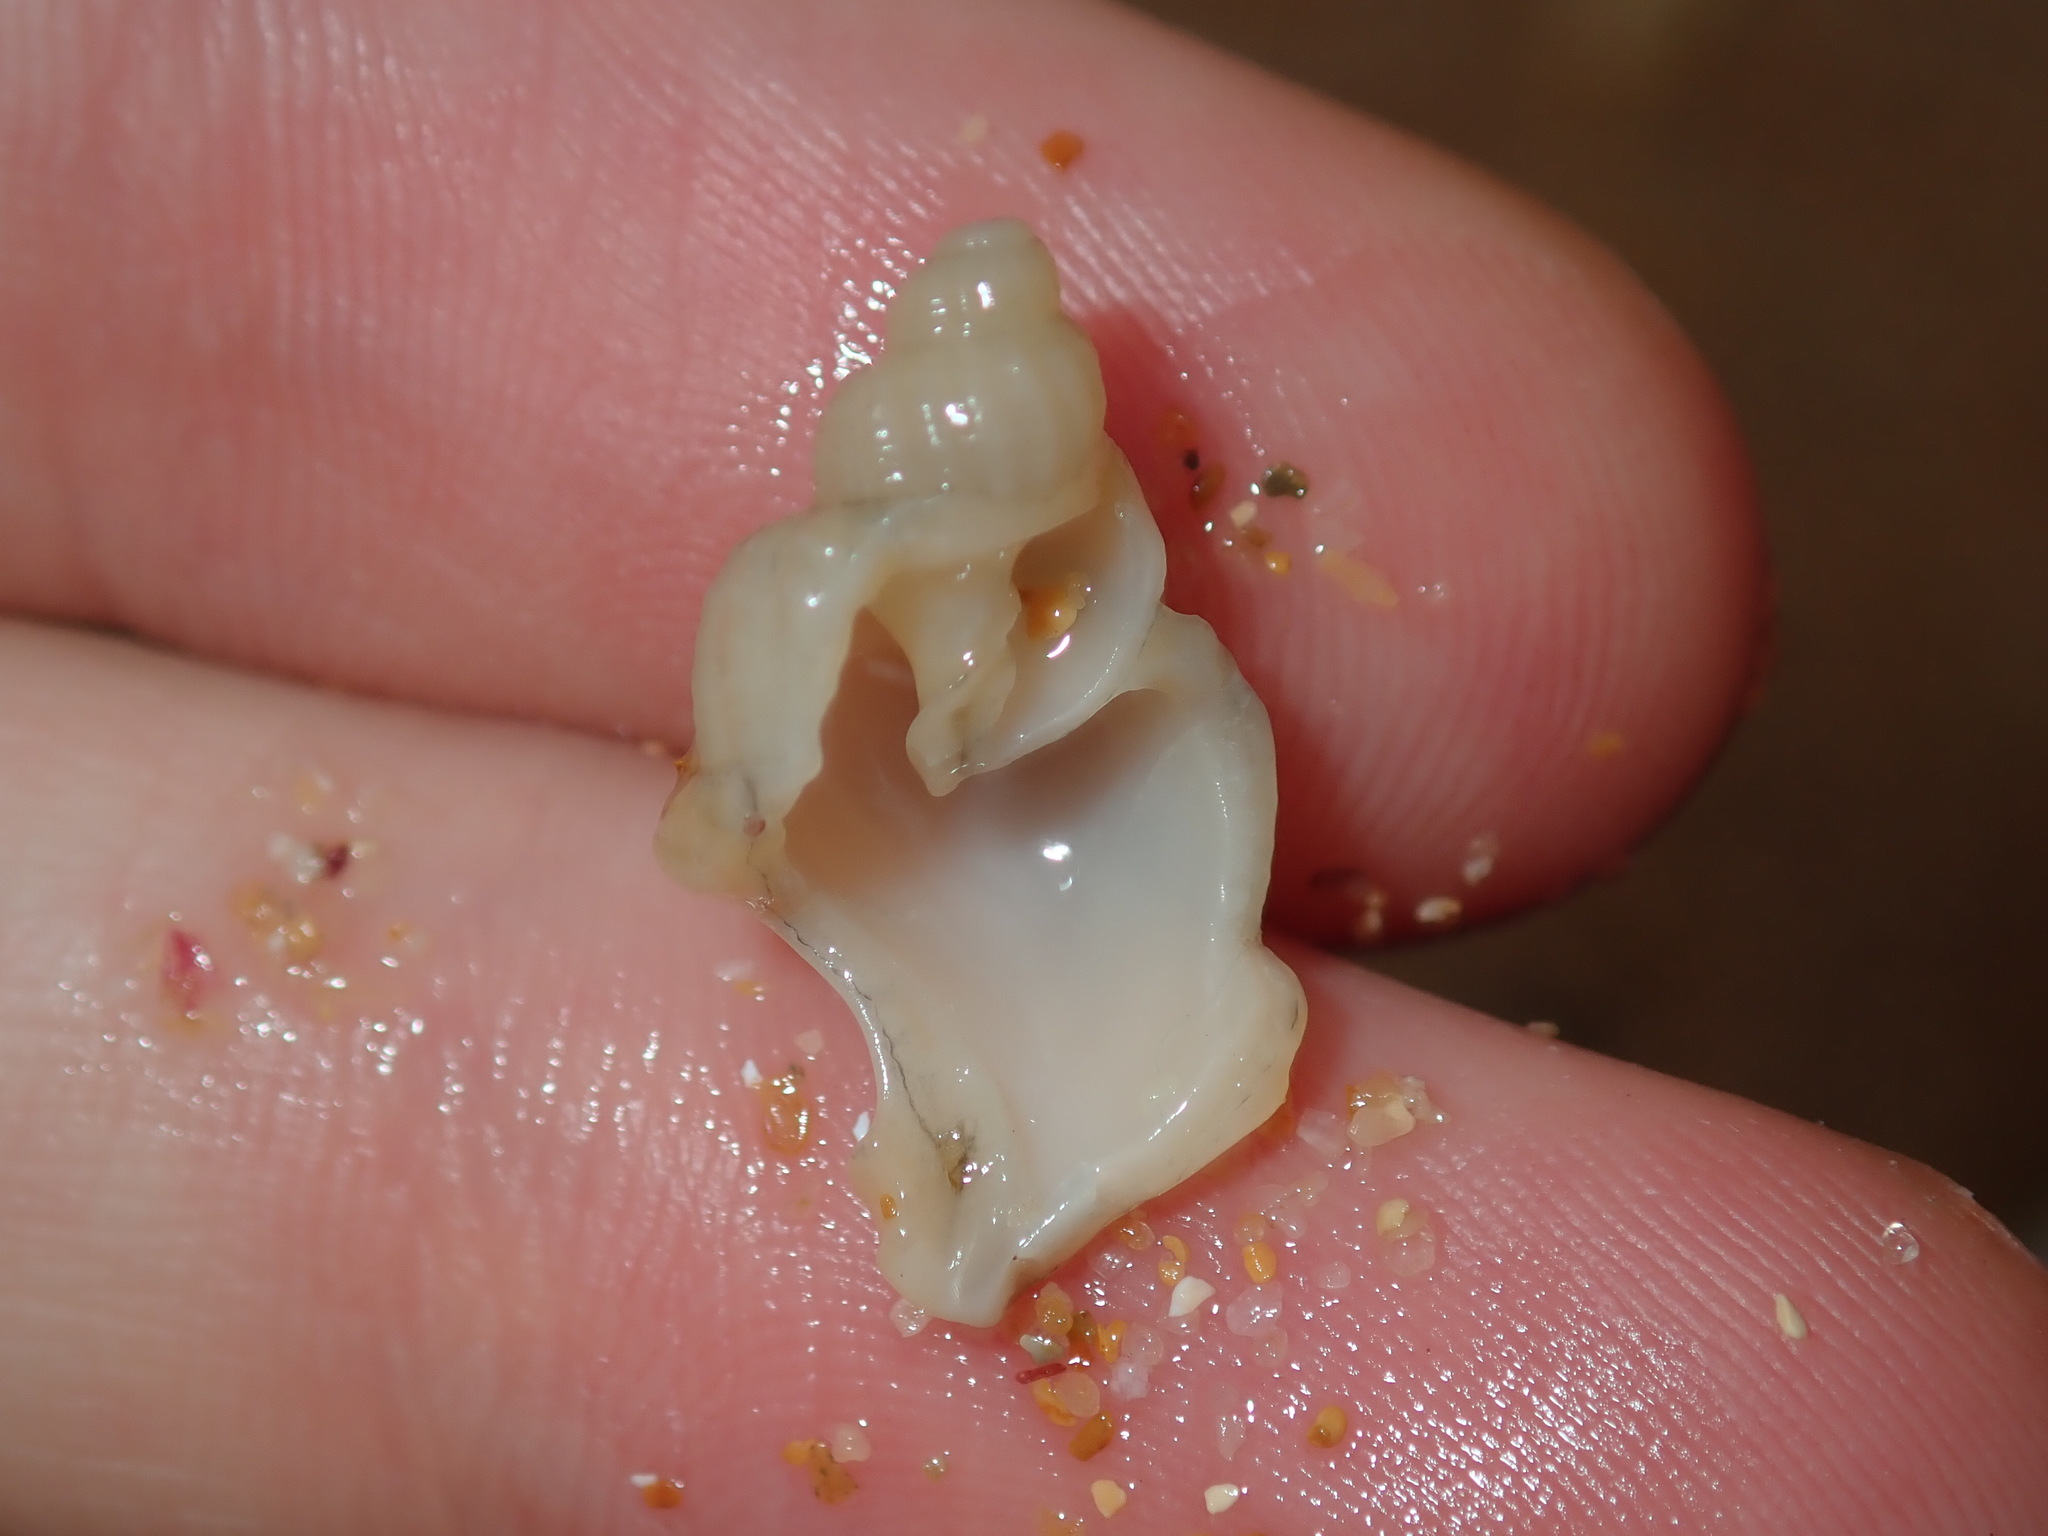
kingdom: Animalia
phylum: Mollusca
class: Gastropoda
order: Neogastropoda
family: Cancellariidae
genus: Merica
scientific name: Merica undulata
